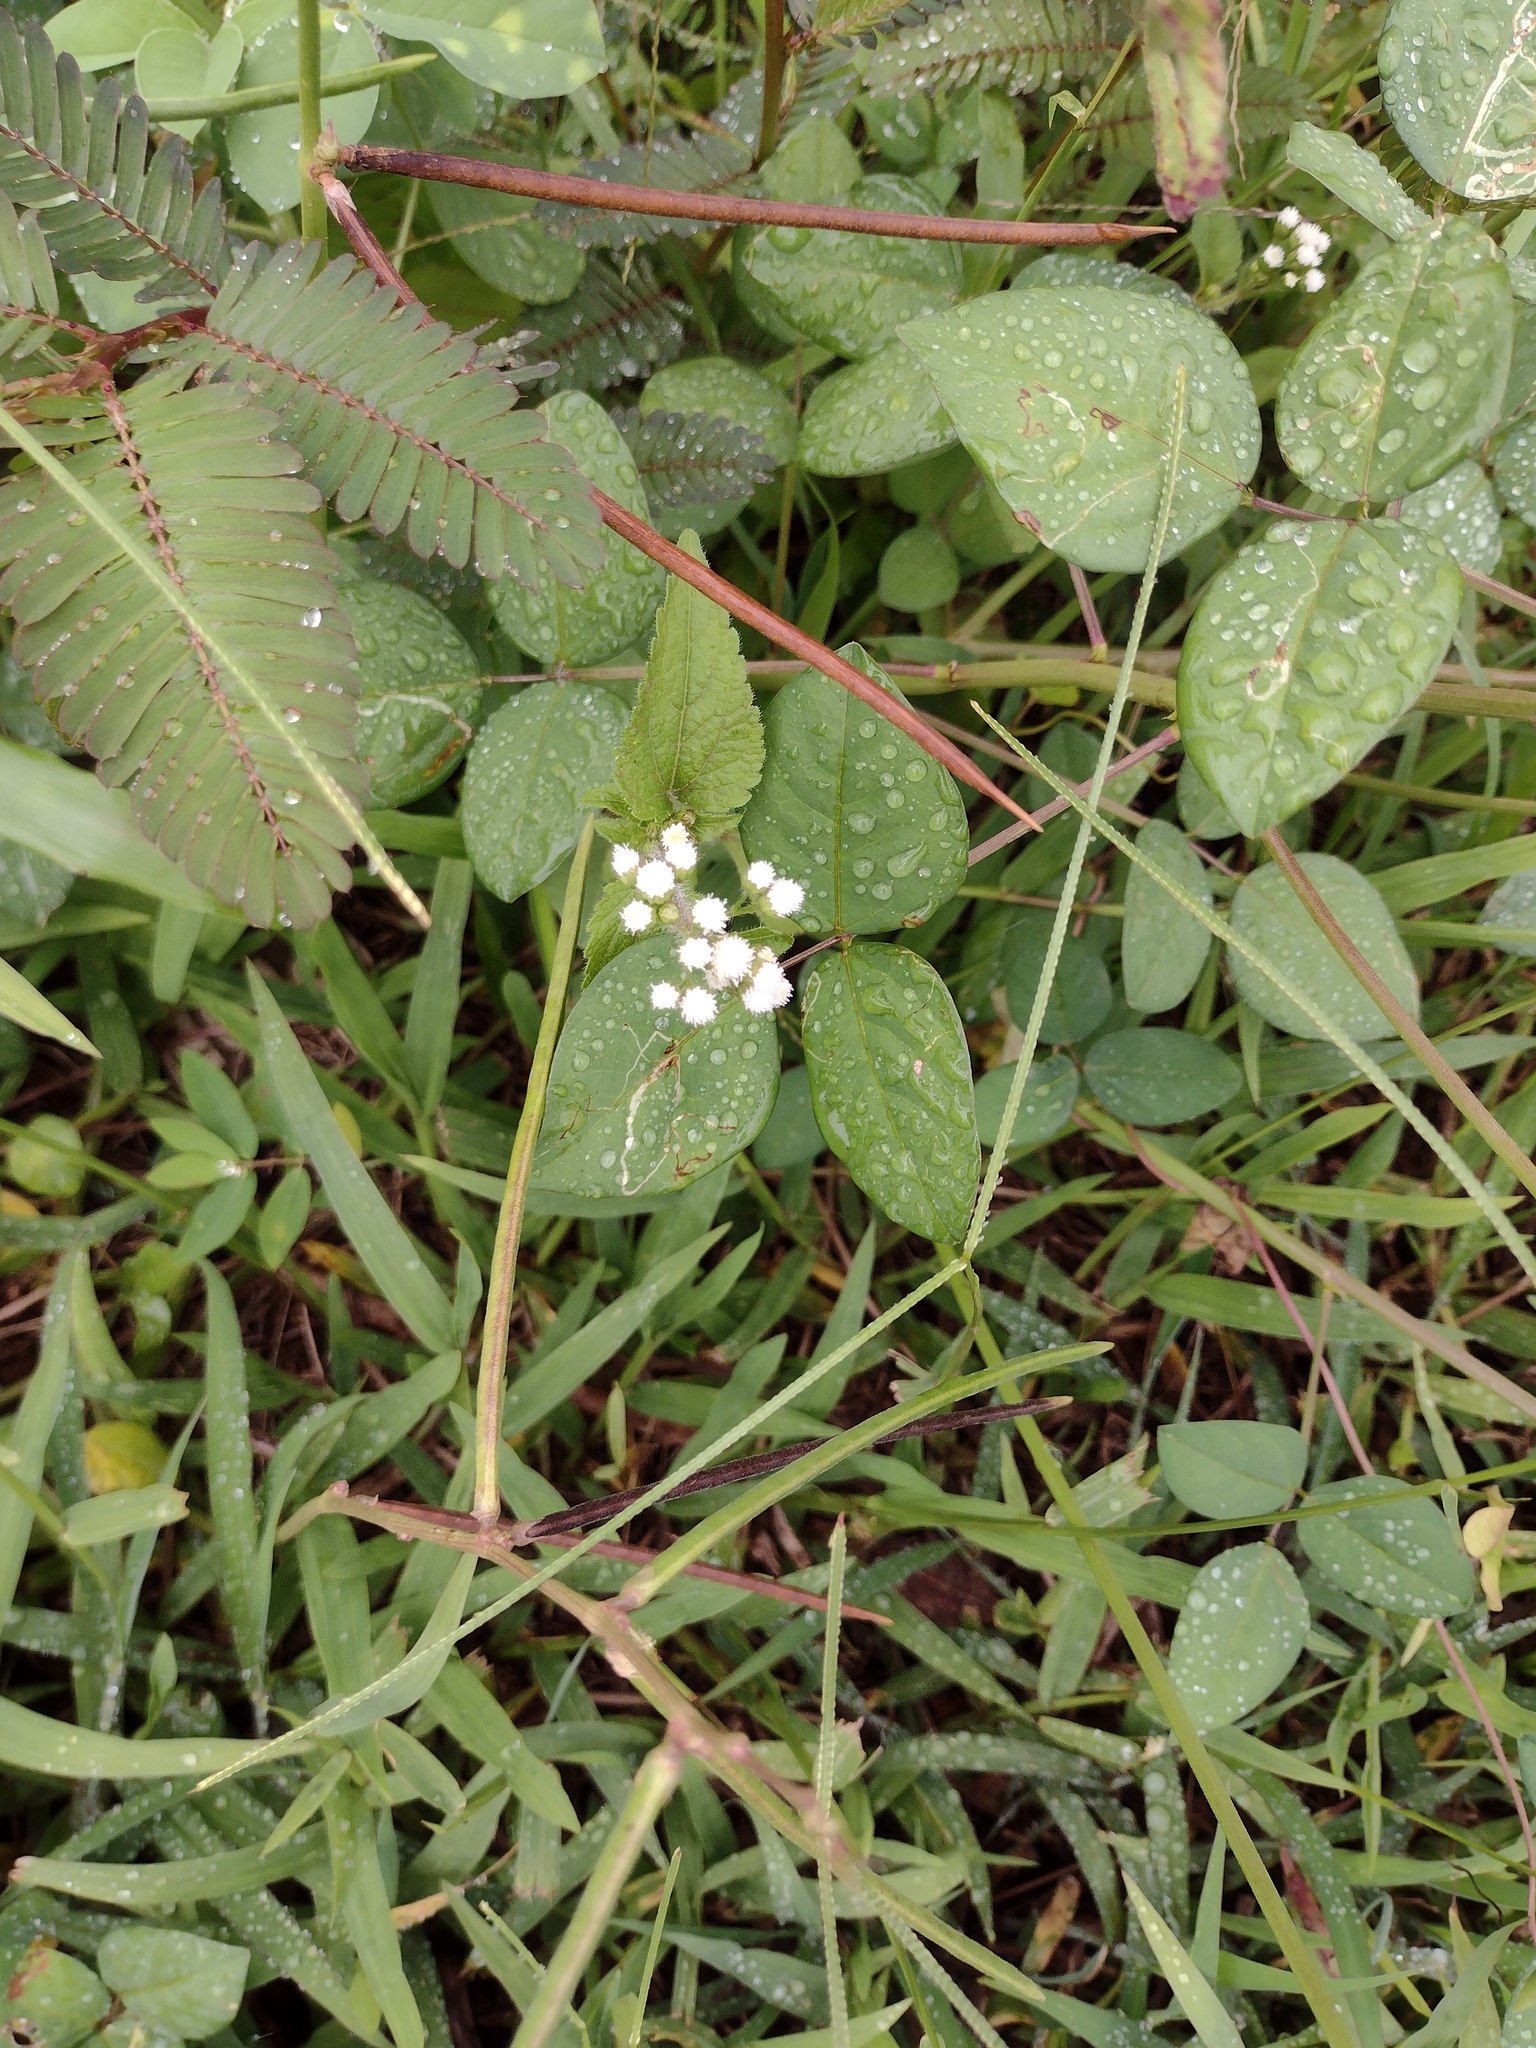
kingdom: Plantae
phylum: Tracheophyta
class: Magnoliopsida
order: Asterales
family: Asteraceae
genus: Ageratum
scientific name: Ageratum conyzoides
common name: Tropical whiteweed
